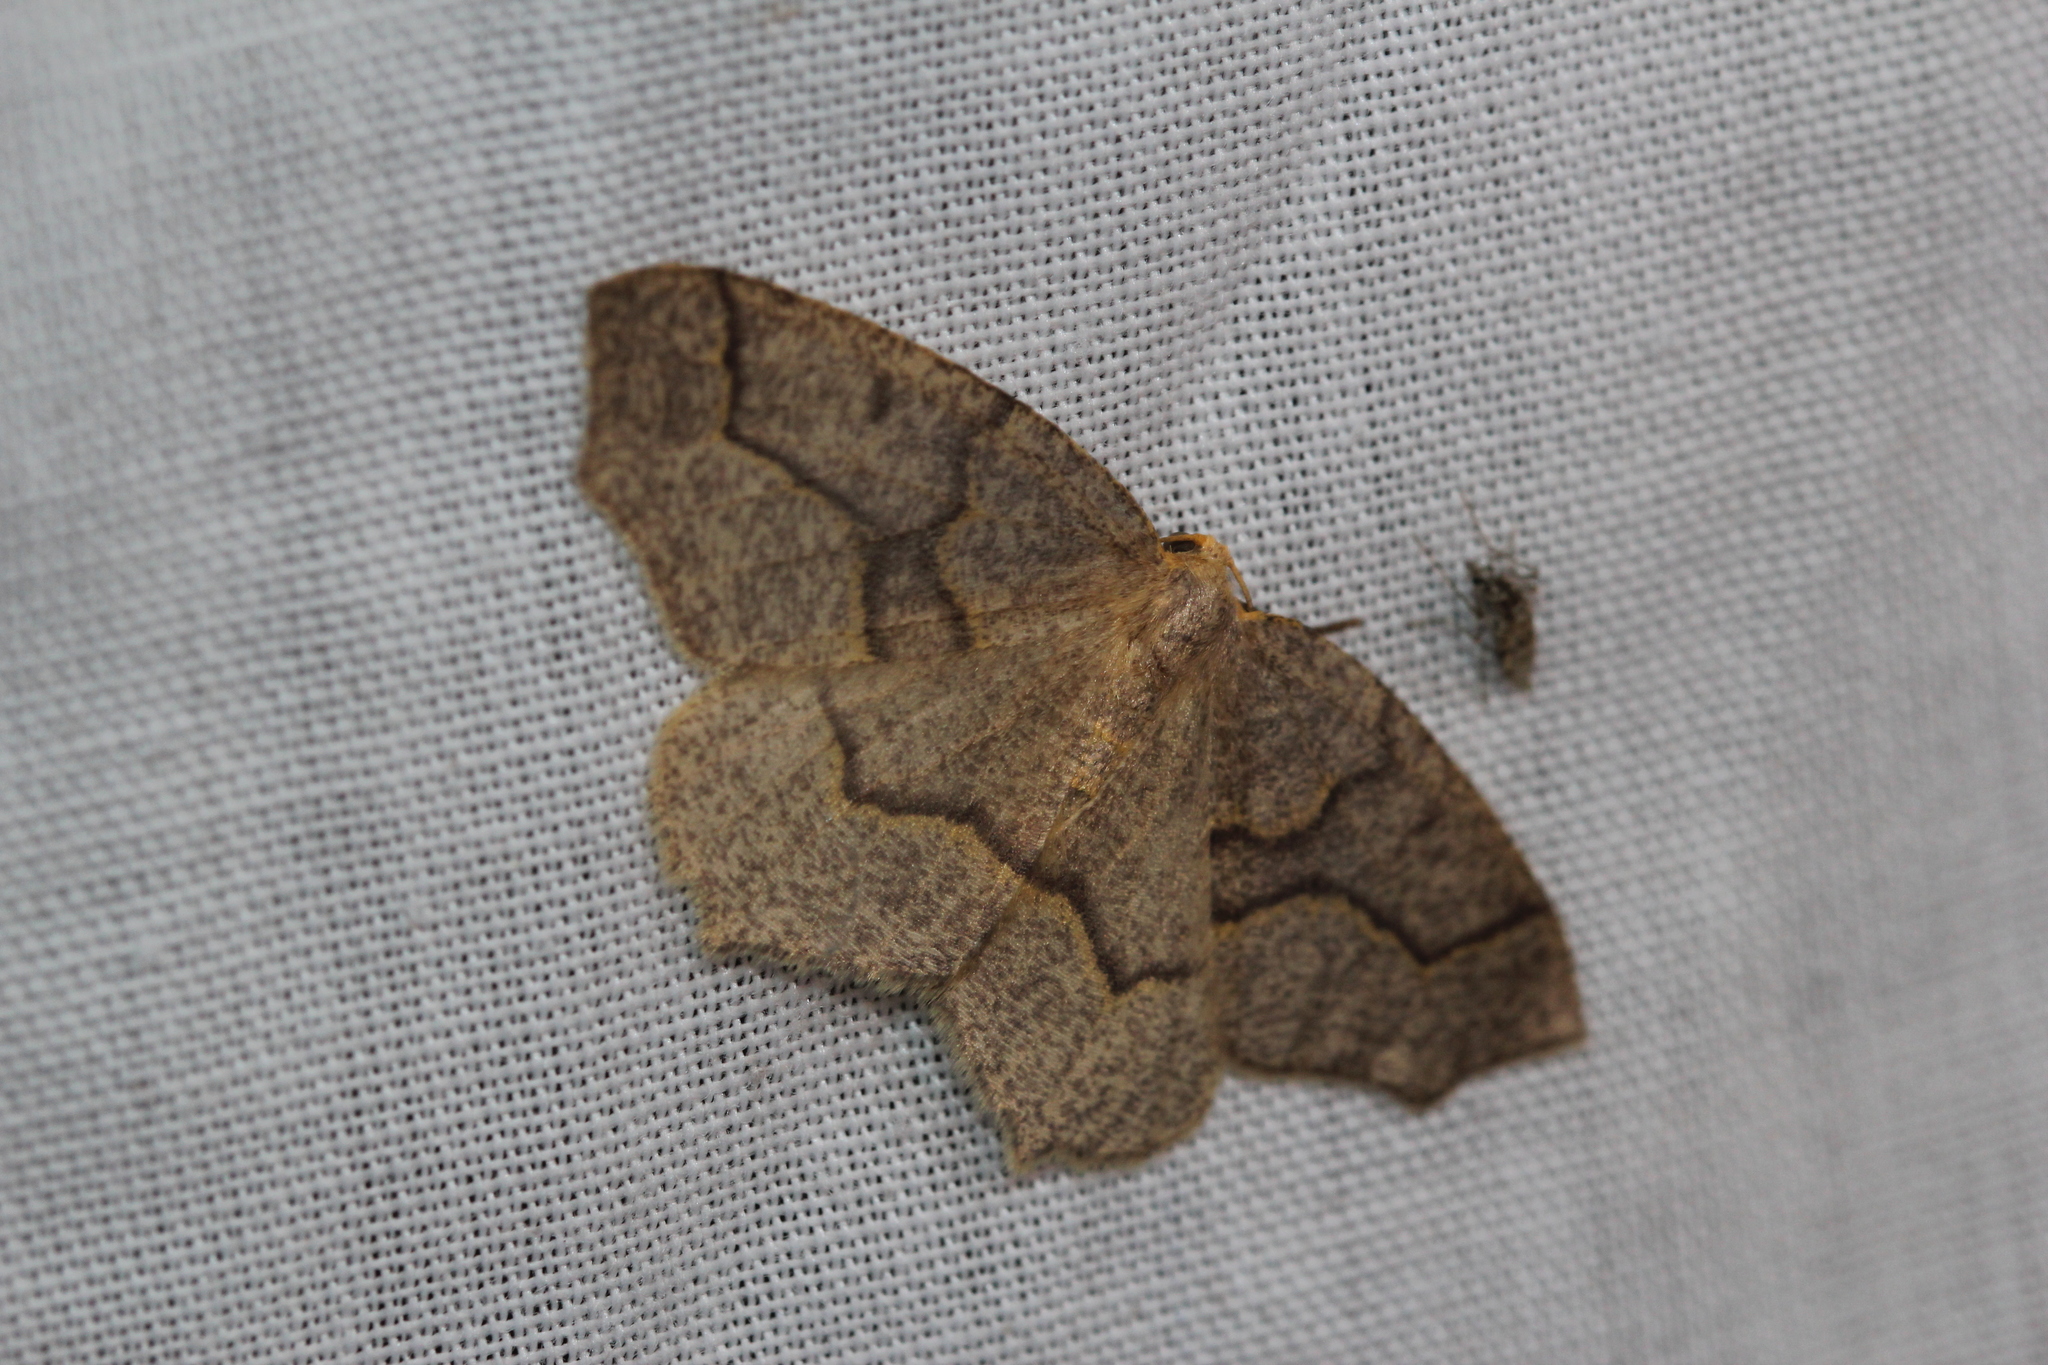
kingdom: Animalia
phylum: Arthropoda
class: Insecta
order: Lepidoptera
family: Geometridae
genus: Lambdina
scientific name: Lambdina fiscellaria
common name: Hemlock looper
